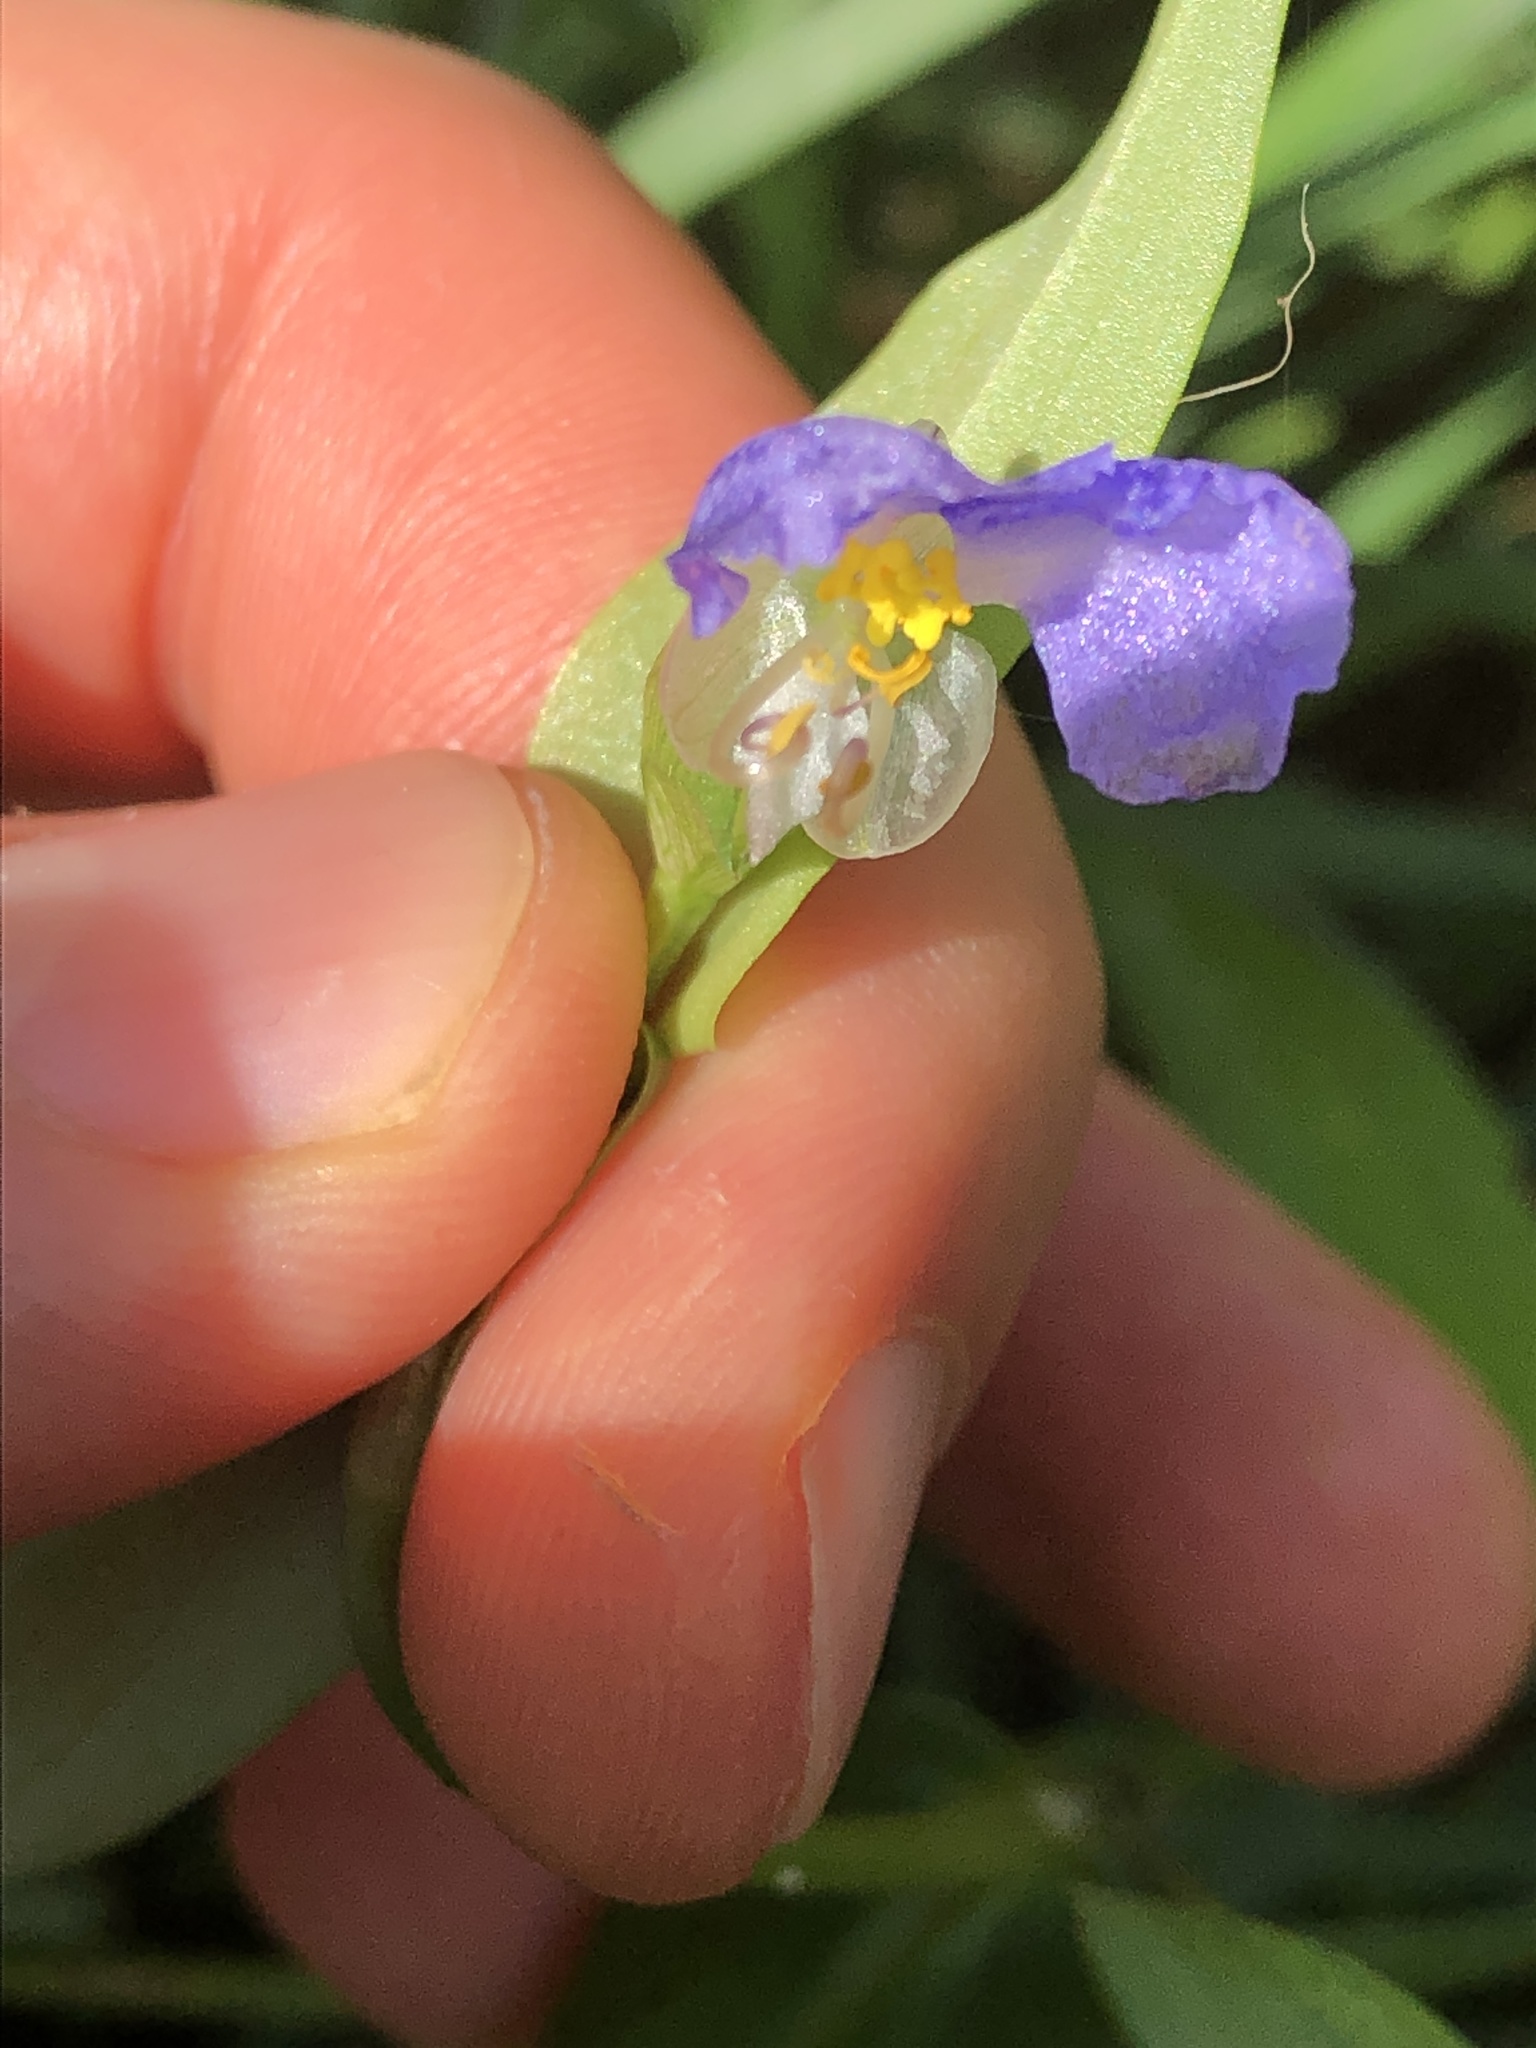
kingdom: Plantae
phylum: Tracheophyta
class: Liliopsida
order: Commelinales
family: Commelinaceae
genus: Commelina
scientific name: Commelina communis
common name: Asiatic dayflower
